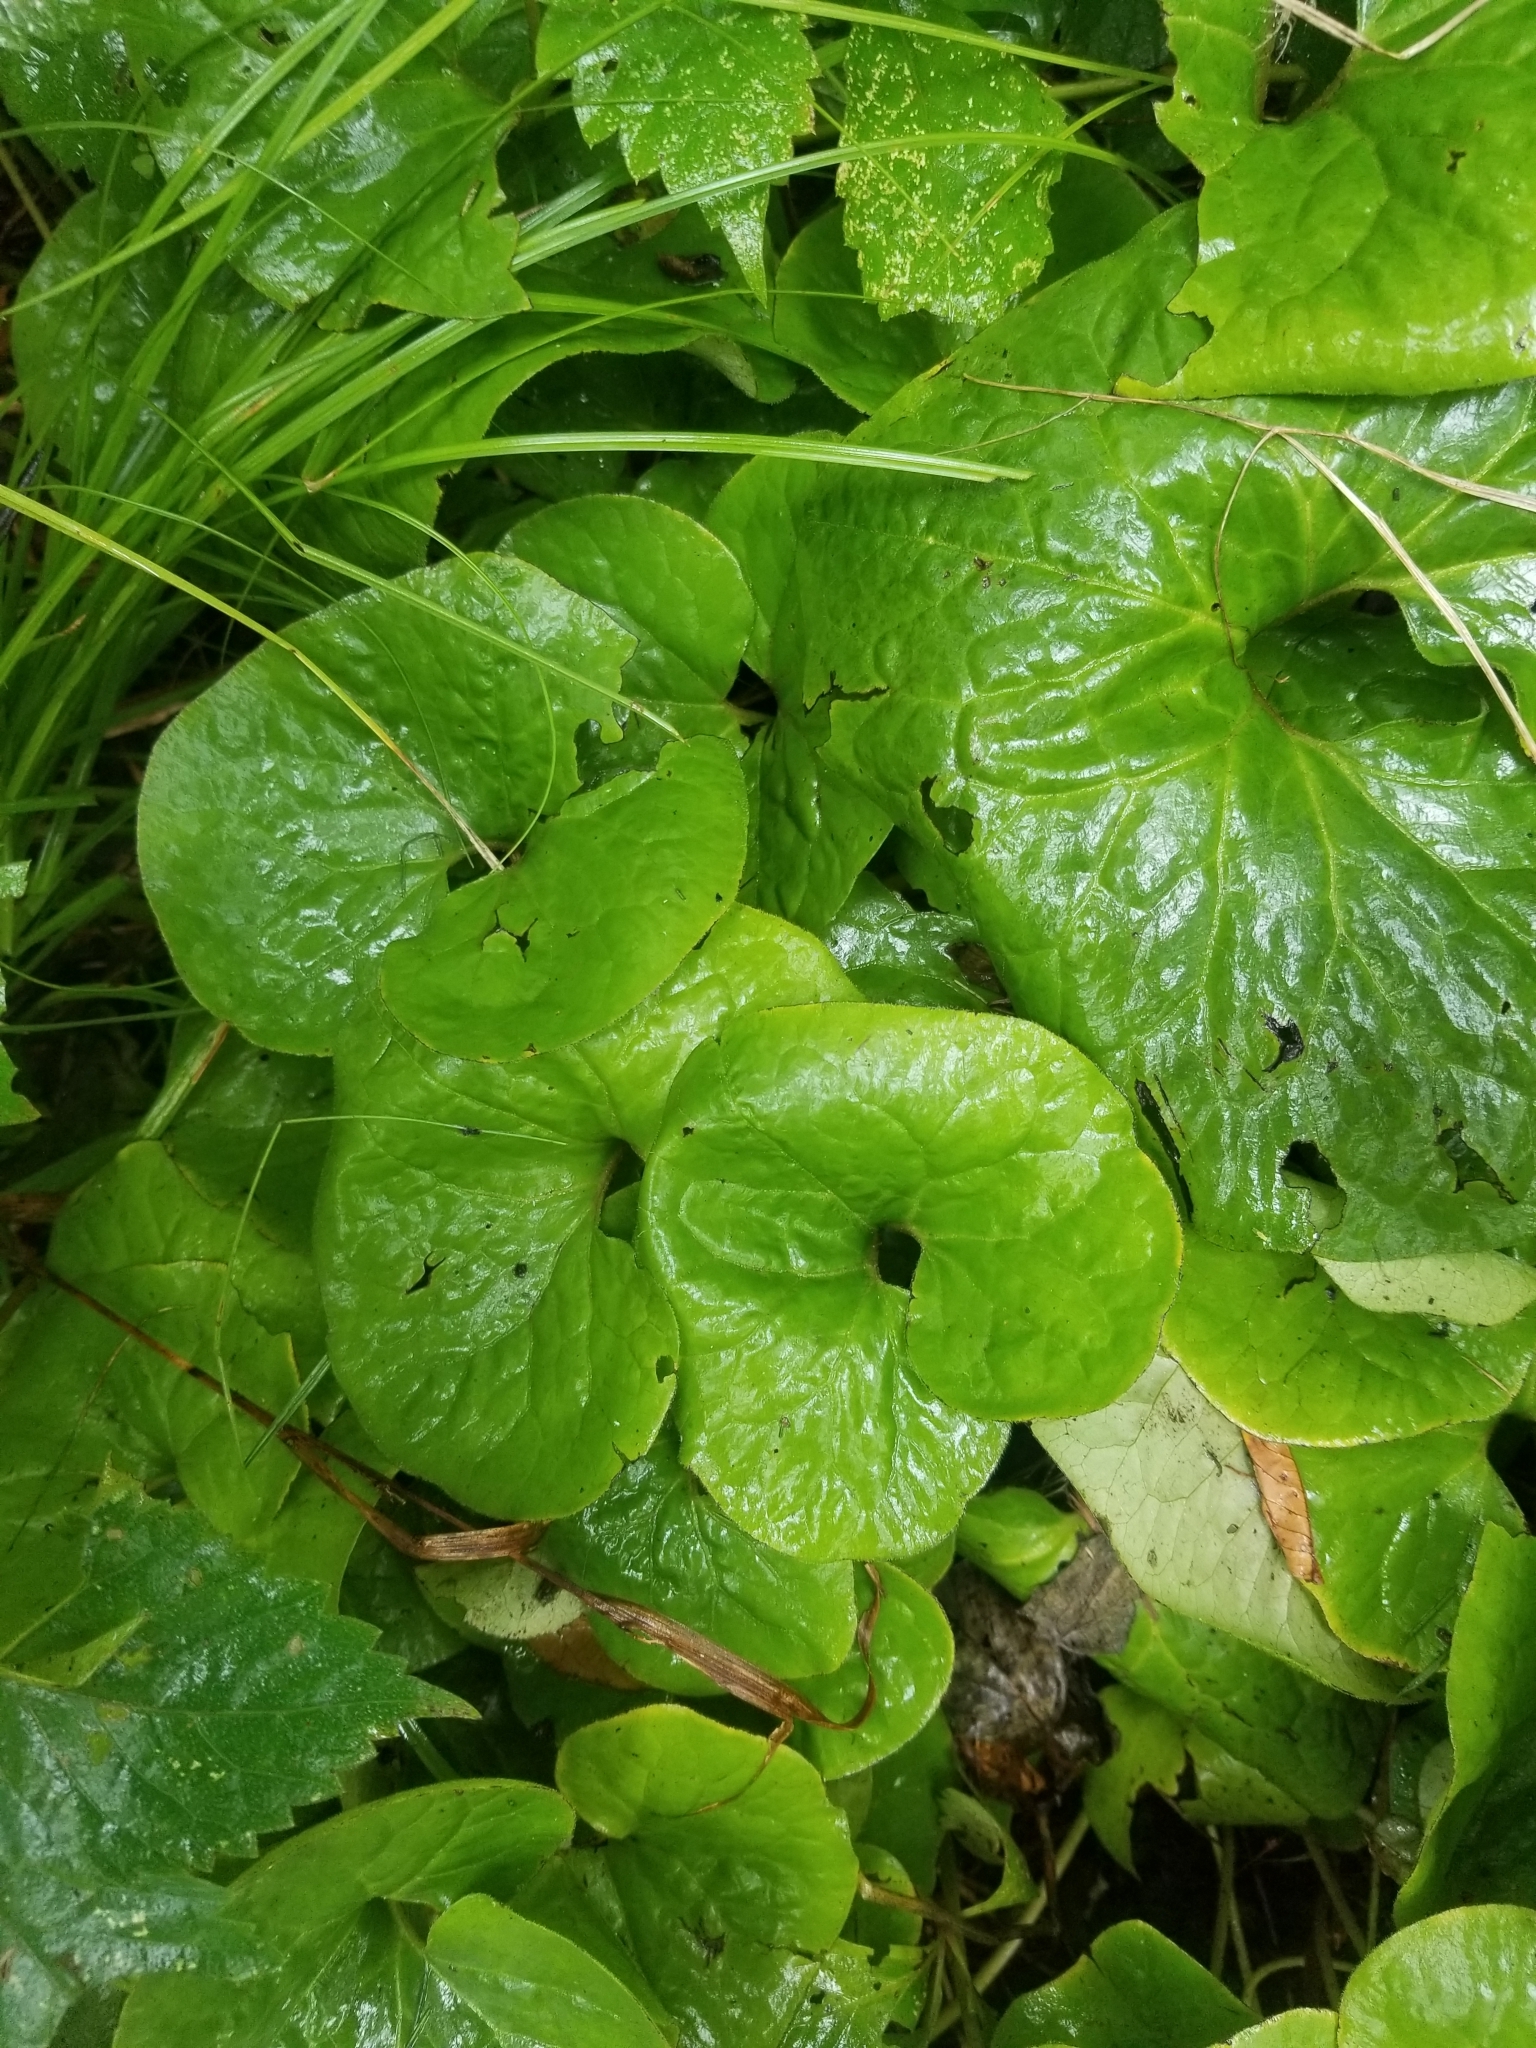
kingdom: Plantae
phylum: Tracheophyta
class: Magnoliopsida
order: Piperales
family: Aristolochiaceae
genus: Asarum
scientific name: Asarum canadense
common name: Wild ginger
